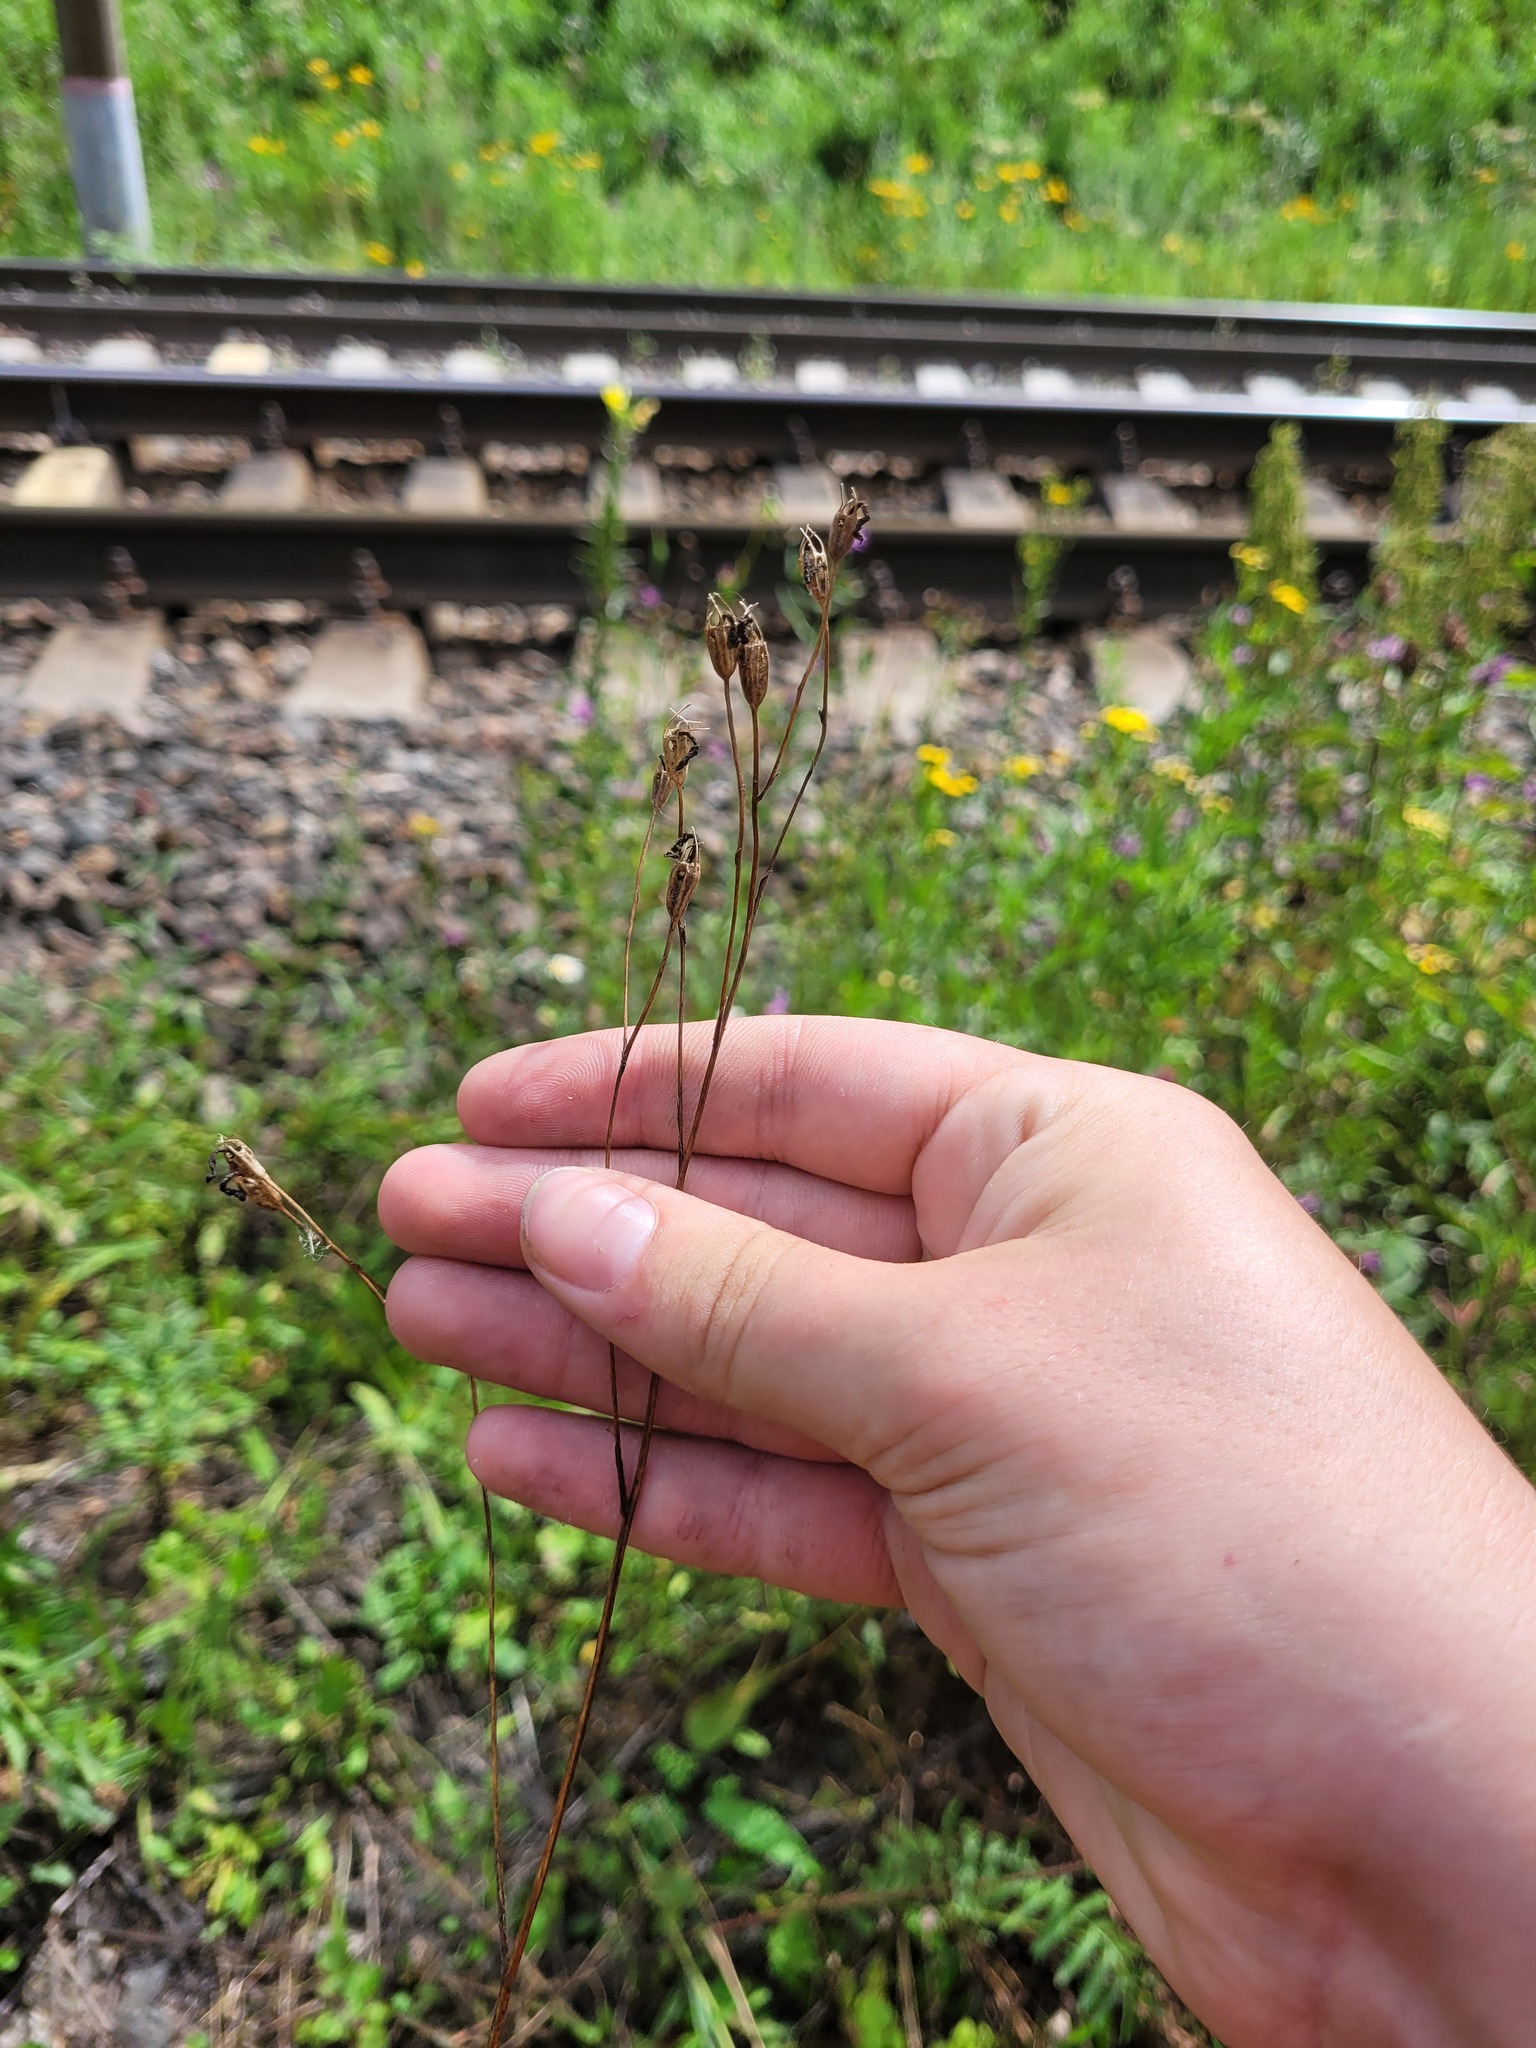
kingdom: Plantae
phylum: Tracheophyta
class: Magnoliopsida
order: Asterales
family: Campanulaceae
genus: Campanula
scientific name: Campanula patula
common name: Spreading bellflower
